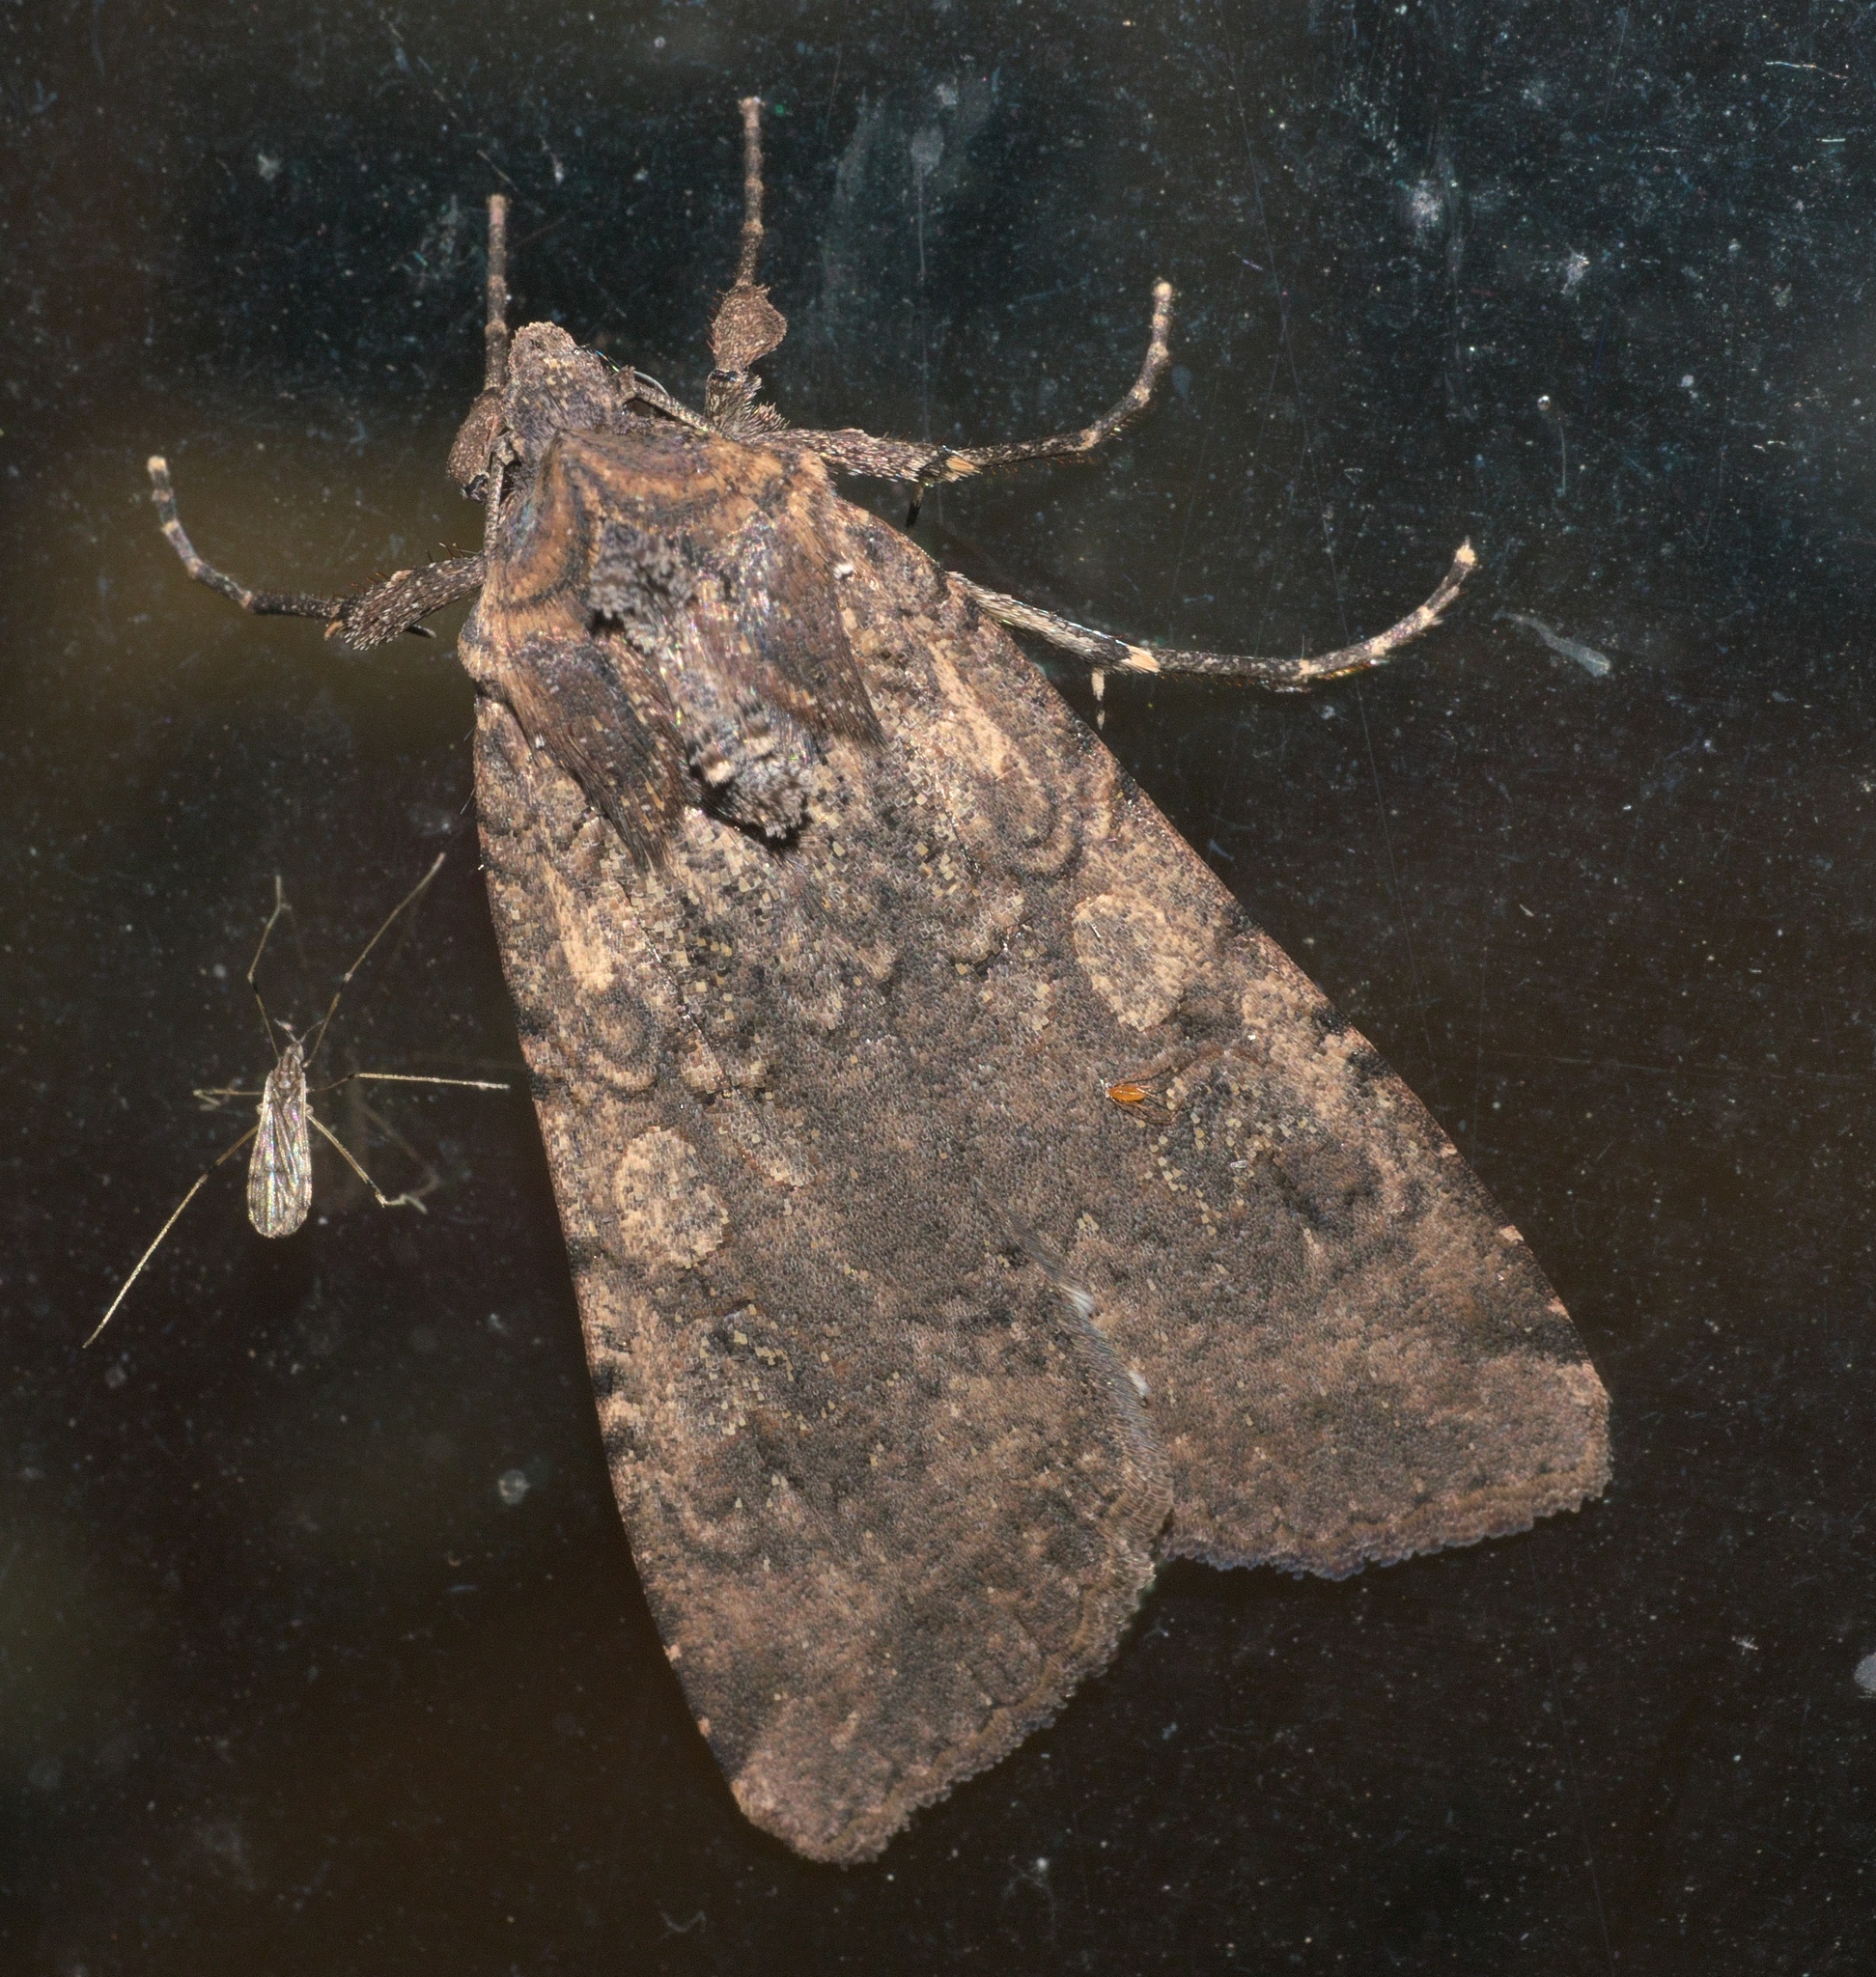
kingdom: Animalia
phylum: Arthropoda
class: Insecta
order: Lepidoptera
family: Noctuidae
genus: Peridroma
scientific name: Peridroma saucia
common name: Pearly underwing
